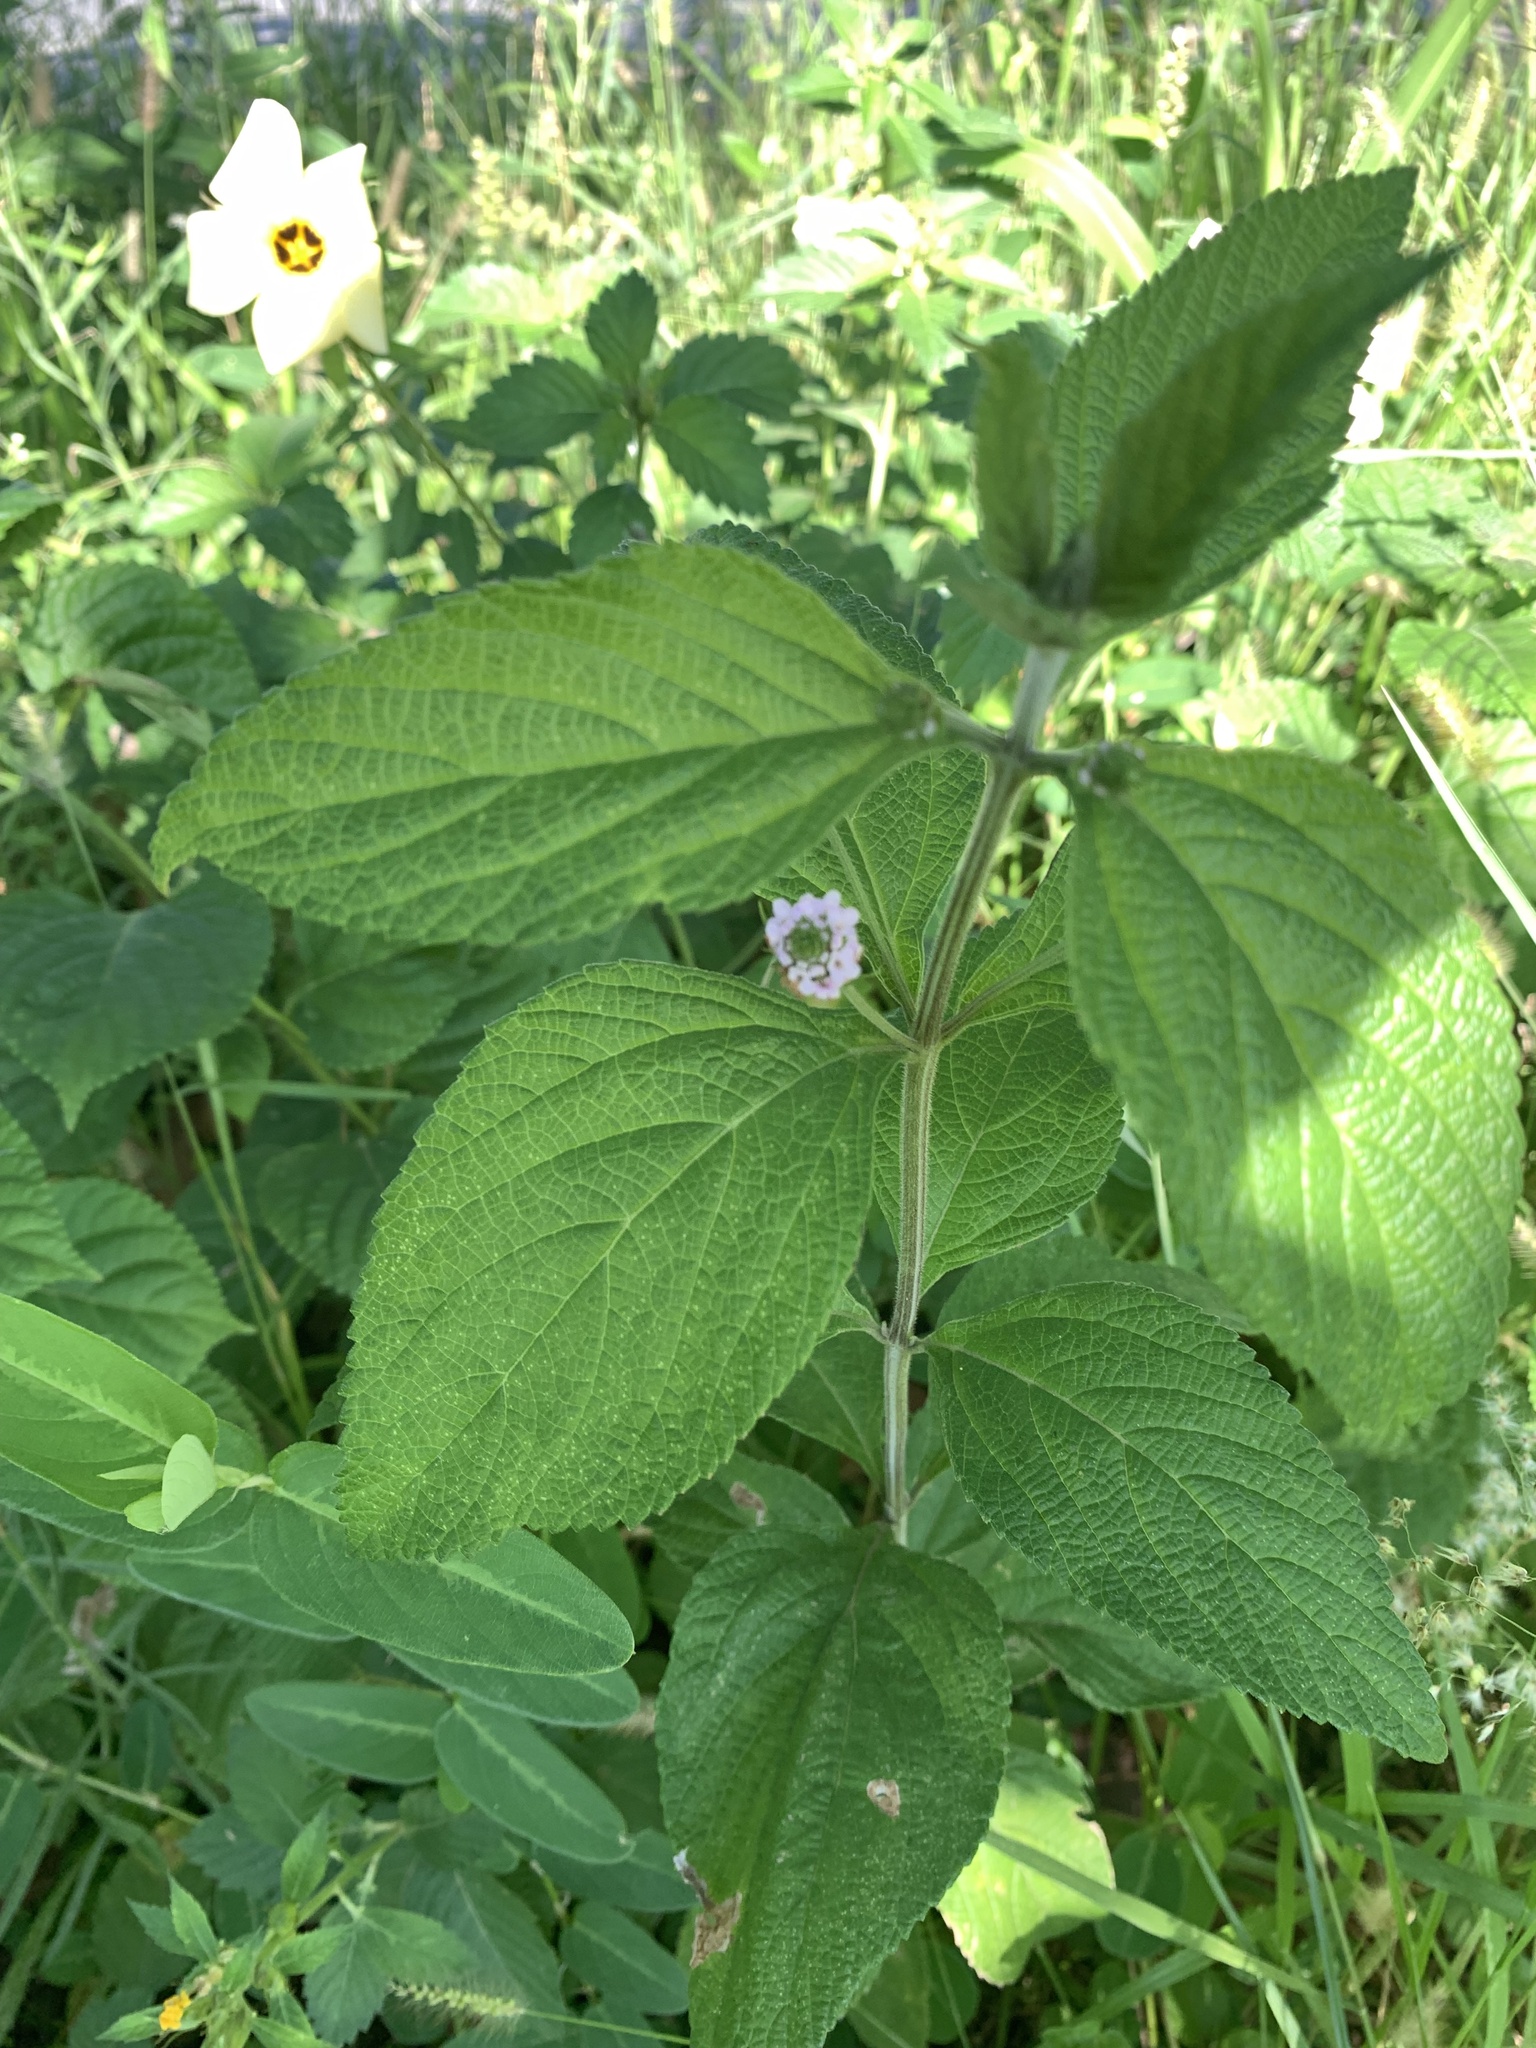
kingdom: Plantae
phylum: Tracheophyta
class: Magnoliopsida
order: Lamiales
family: Verbenaceae
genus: Lantana
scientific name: Lantana trifolia
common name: Sweet-sage
